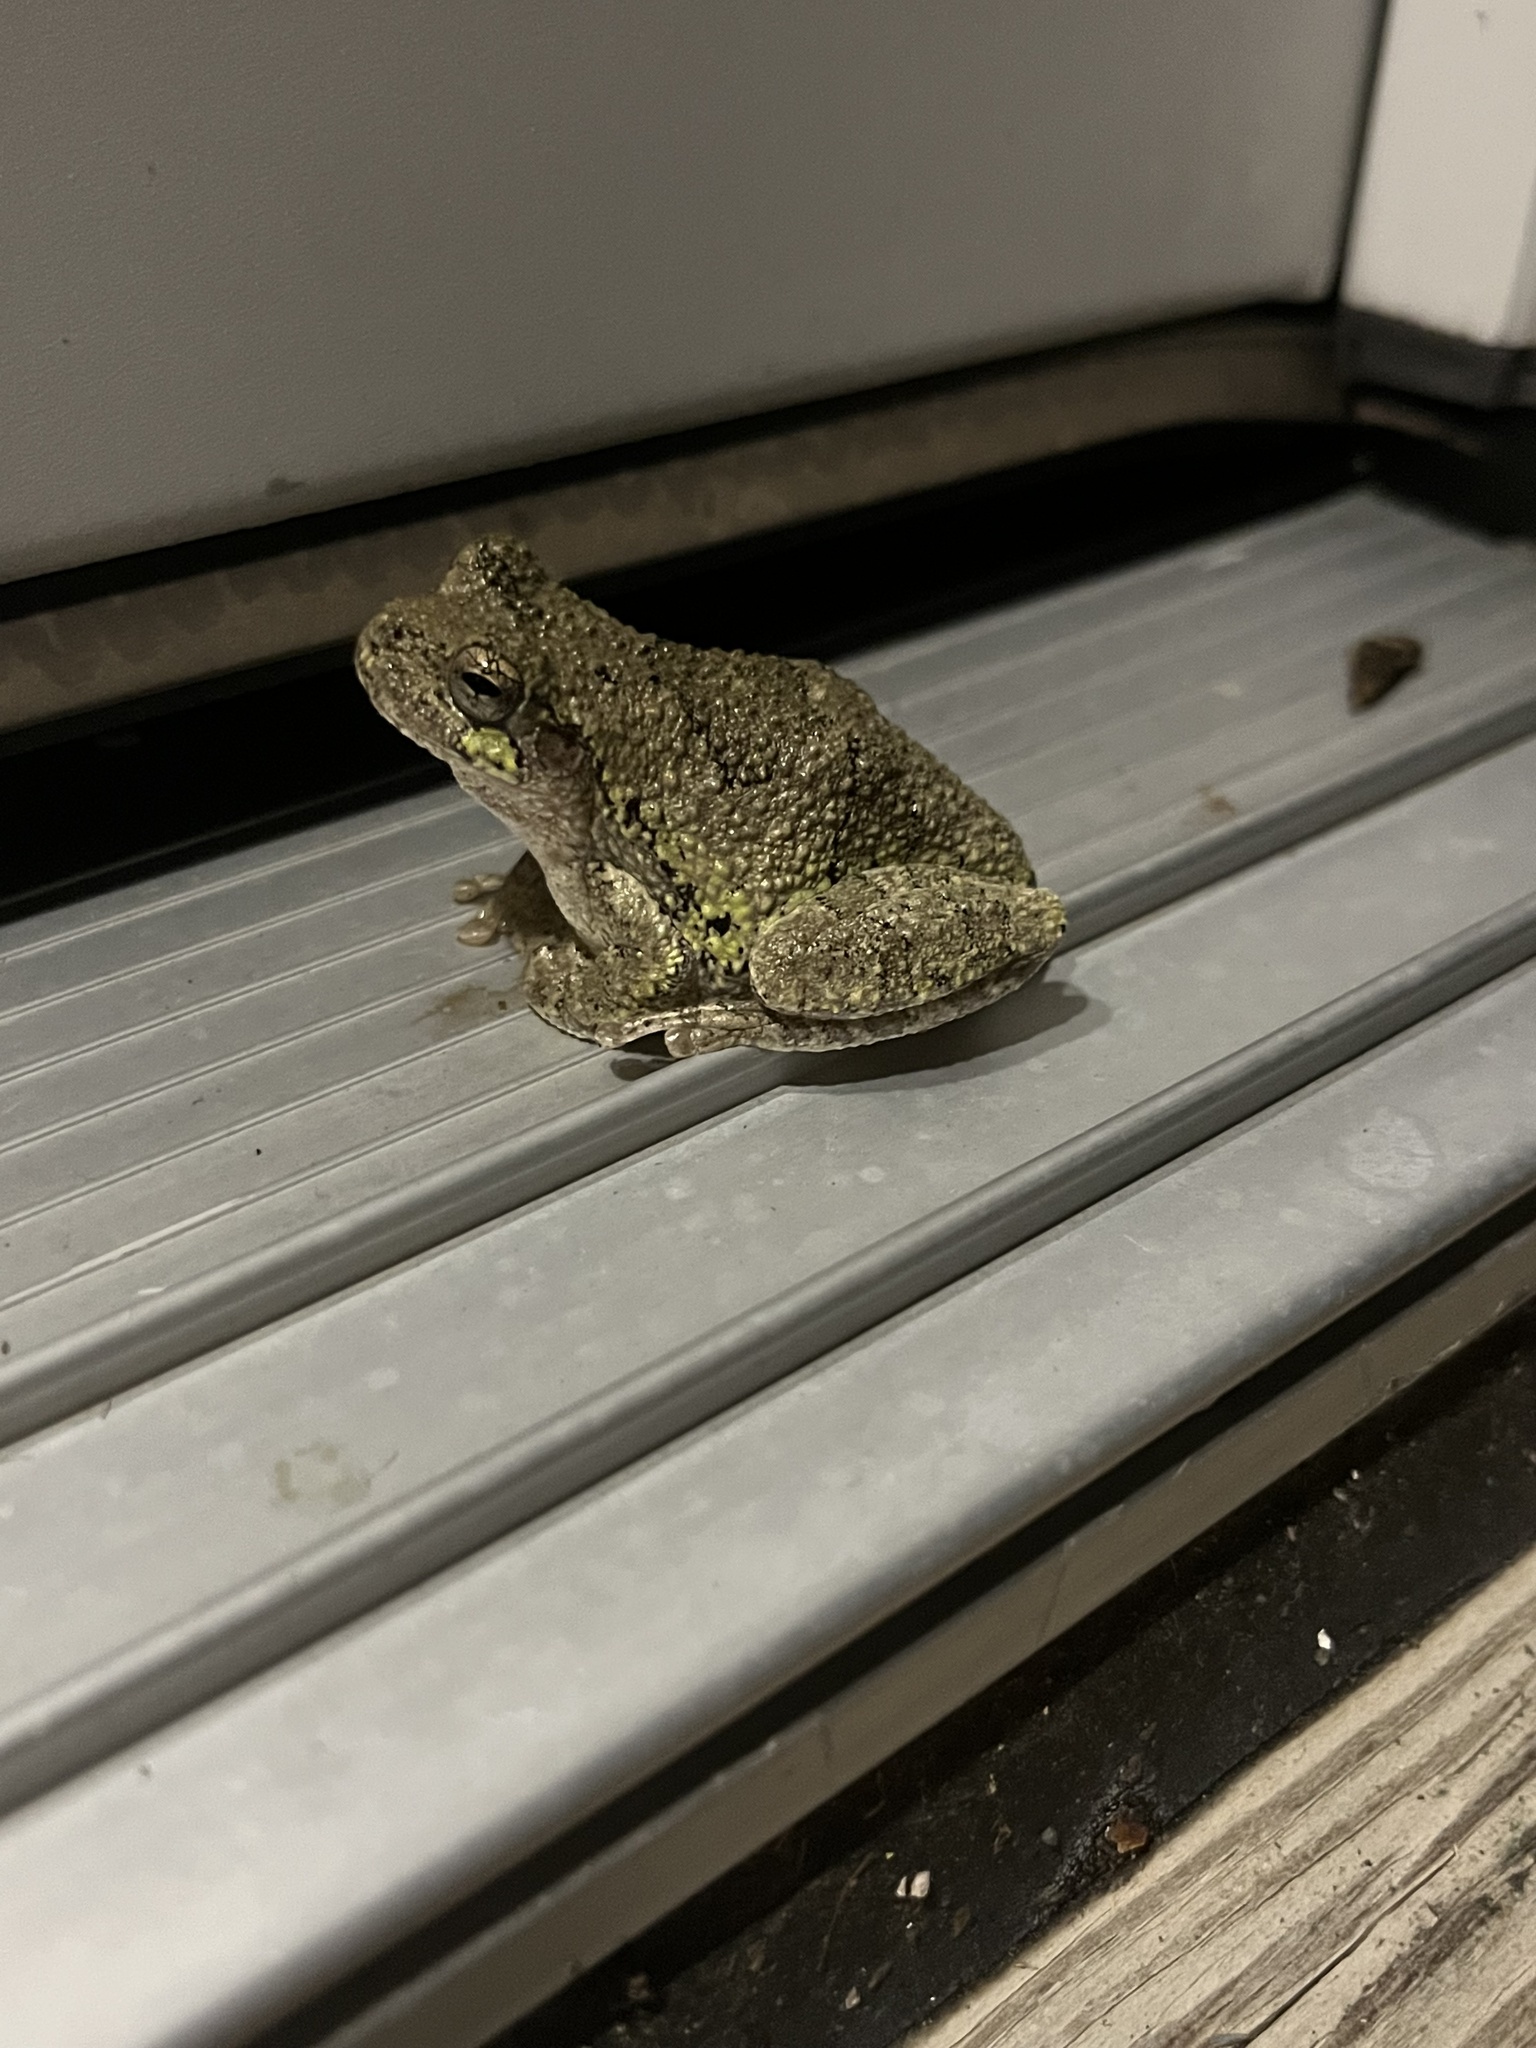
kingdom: Animalia
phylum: Chordata
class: Amphibia
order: Anura
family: Hylidae
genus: Dryophytes
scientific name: Dryophytes chrysoscelis
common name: Cope's gray treefrog
